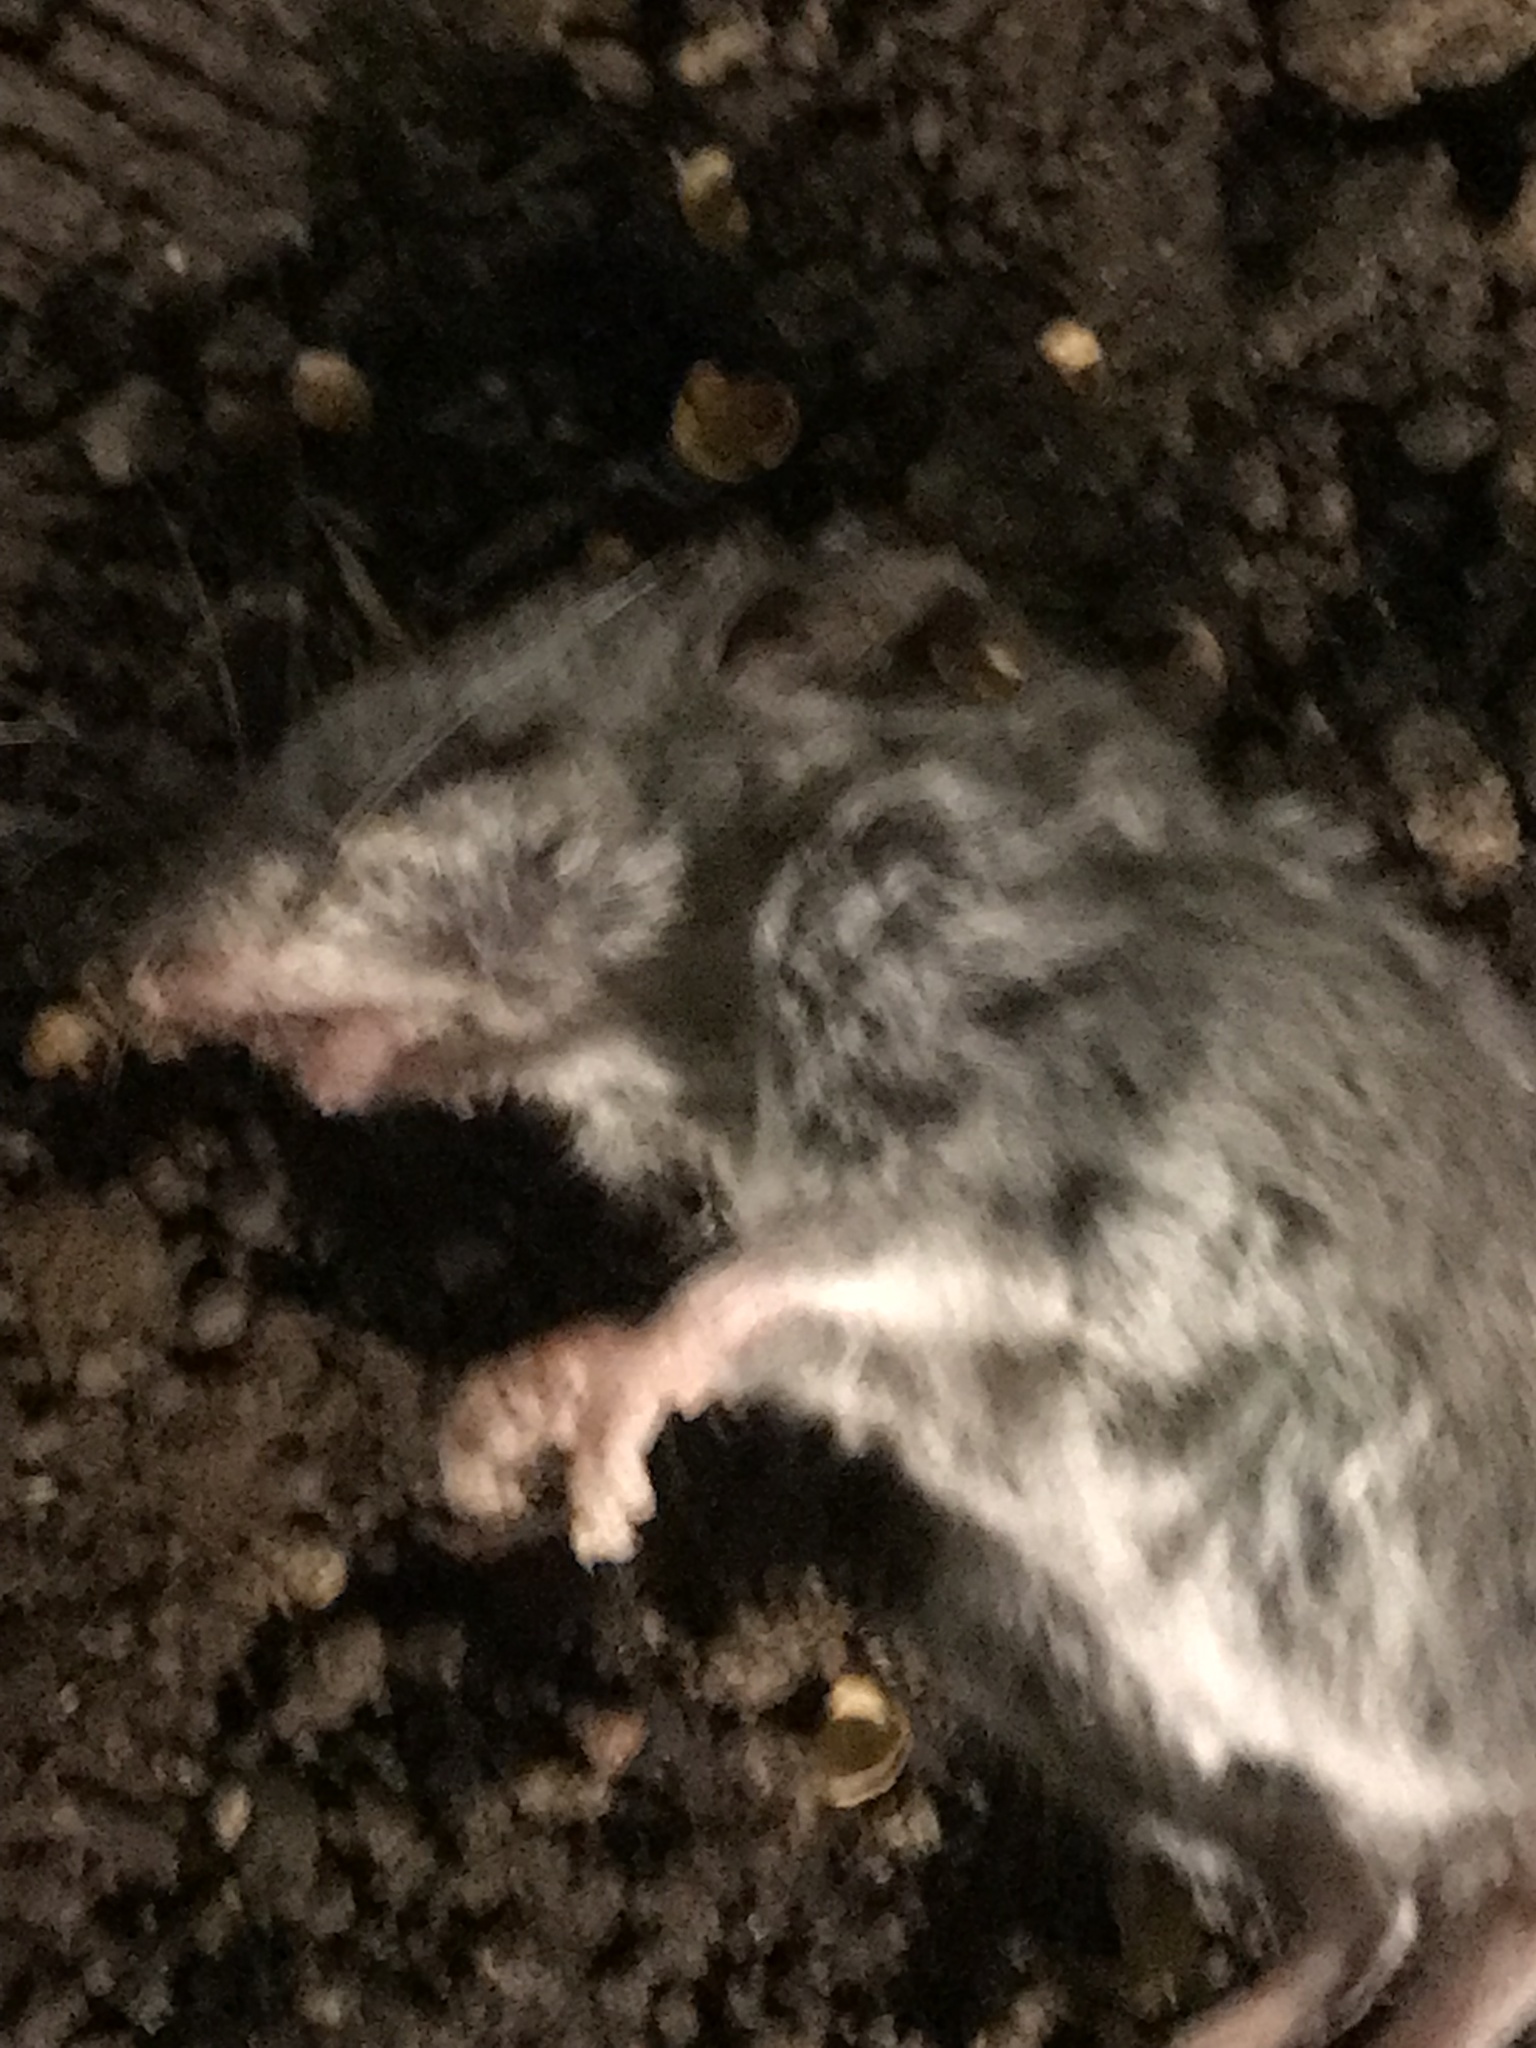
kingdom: Animalia
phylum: Chordata
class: Mammalia
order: Rodentia
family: Cricetidae
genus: Peromyscus
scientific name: Peromyscus leucopus
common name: White-footed deermouse
